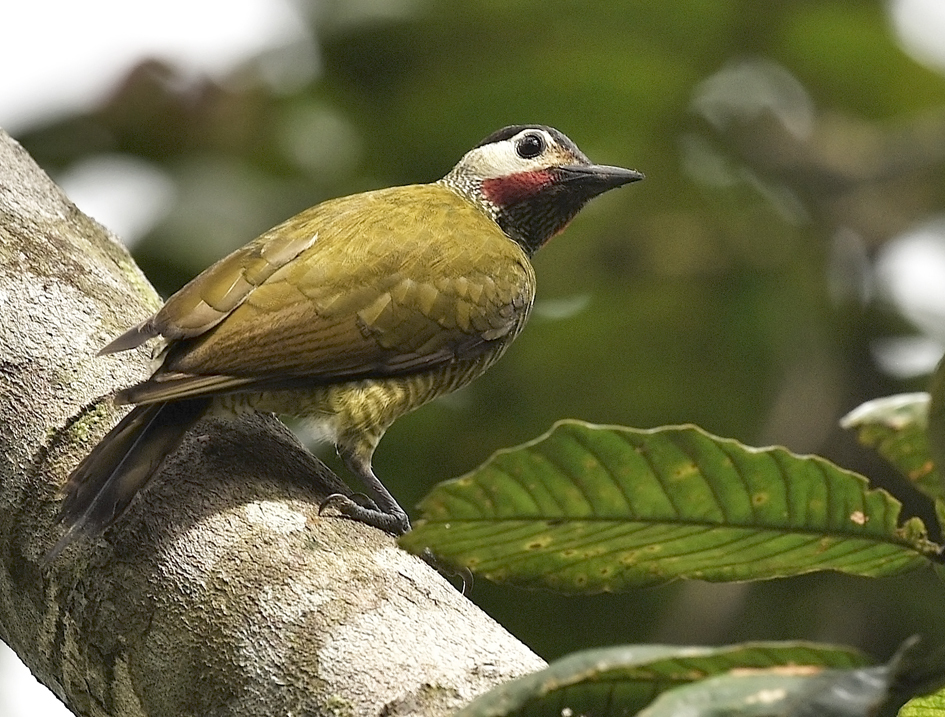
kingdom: Animalia
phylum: Chordata
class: Aves
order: Piciformes
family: Picidae
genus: Colaptes
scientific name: Colaptes rubiginosus
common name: Golden-olive woodpecker
